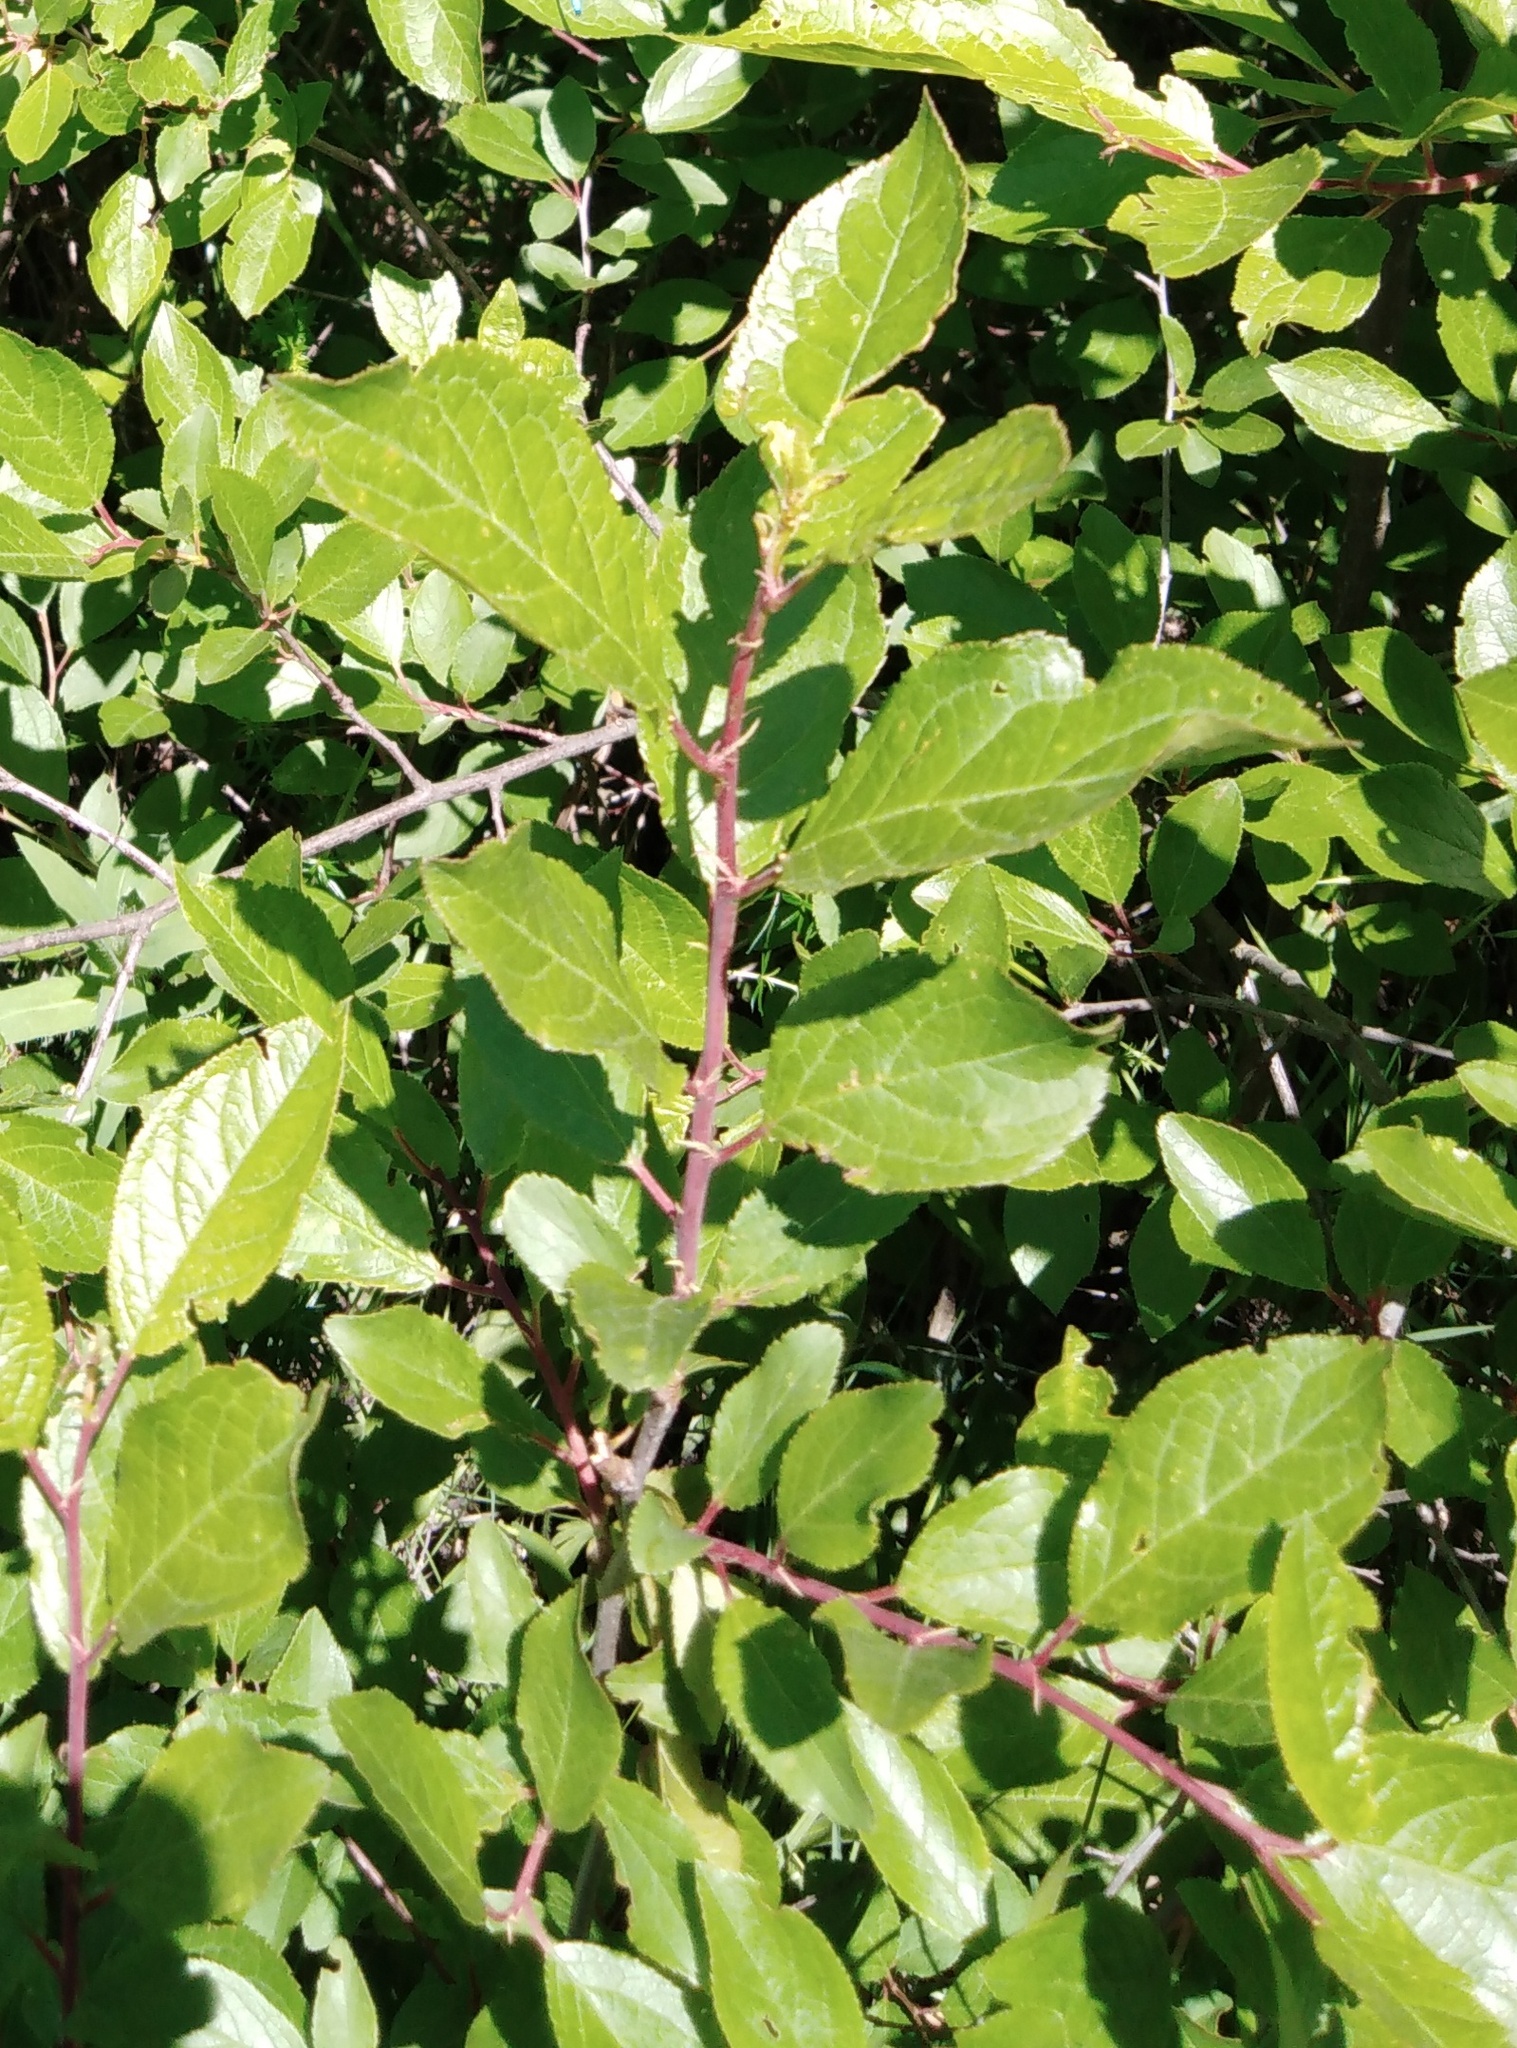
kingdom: Plantae
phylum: Tracheophyta
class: Magnoliopsida
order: Rosales
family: Rosaceae
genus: Prunus
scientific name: Prunus spinosa
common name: Blackthorn
